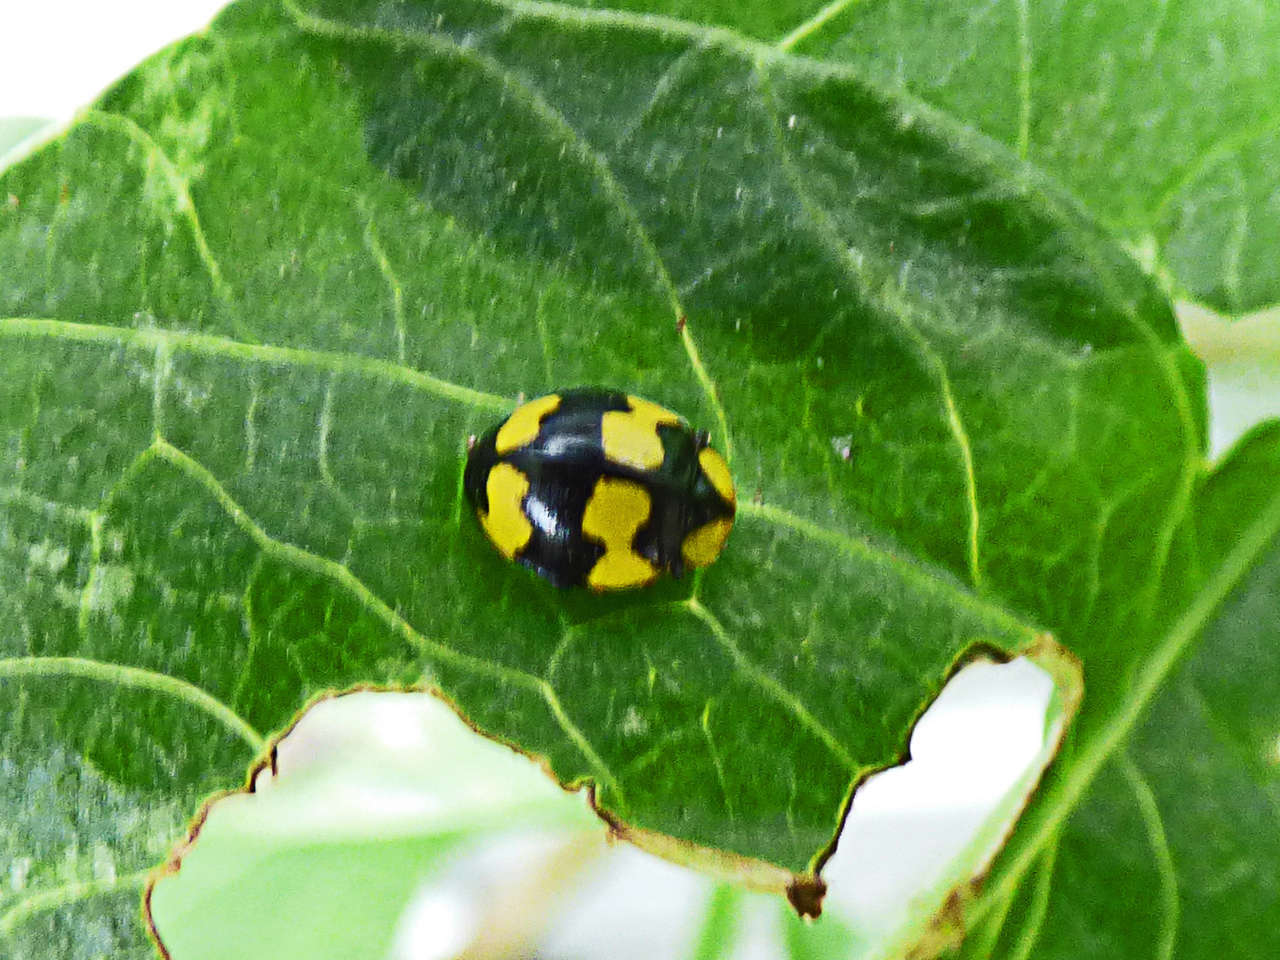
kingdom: Animalia
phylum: Arthropoda
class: Insecta
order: Coleoptera
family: Coccinellidae
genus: Illeis
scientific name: Illeis galbula
